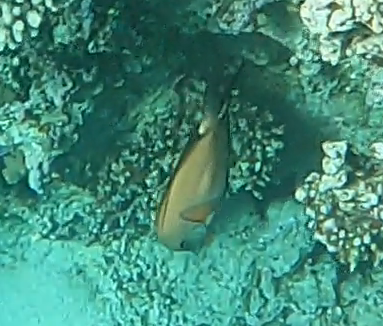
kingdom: Animalia
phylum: Chordata
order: Perciformes
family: Acanthuridae
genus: Ctenochaetus
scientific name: Ctenochaetus striatus
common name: Bristle-toothed surgeonfish
